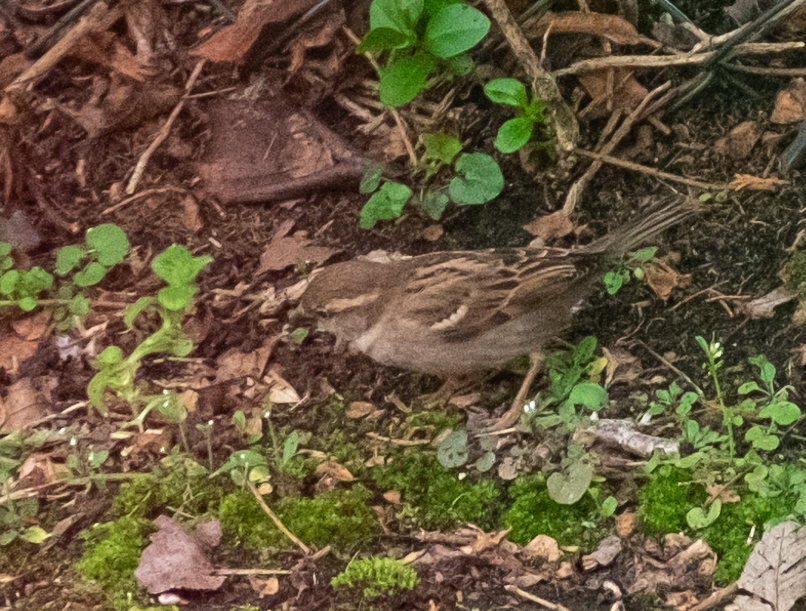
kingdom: Animalia
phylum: Chordata
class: Aves
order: Passeriformes
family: Passeridae
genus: Passer
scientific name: Passer domesticus
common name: House sparrow
